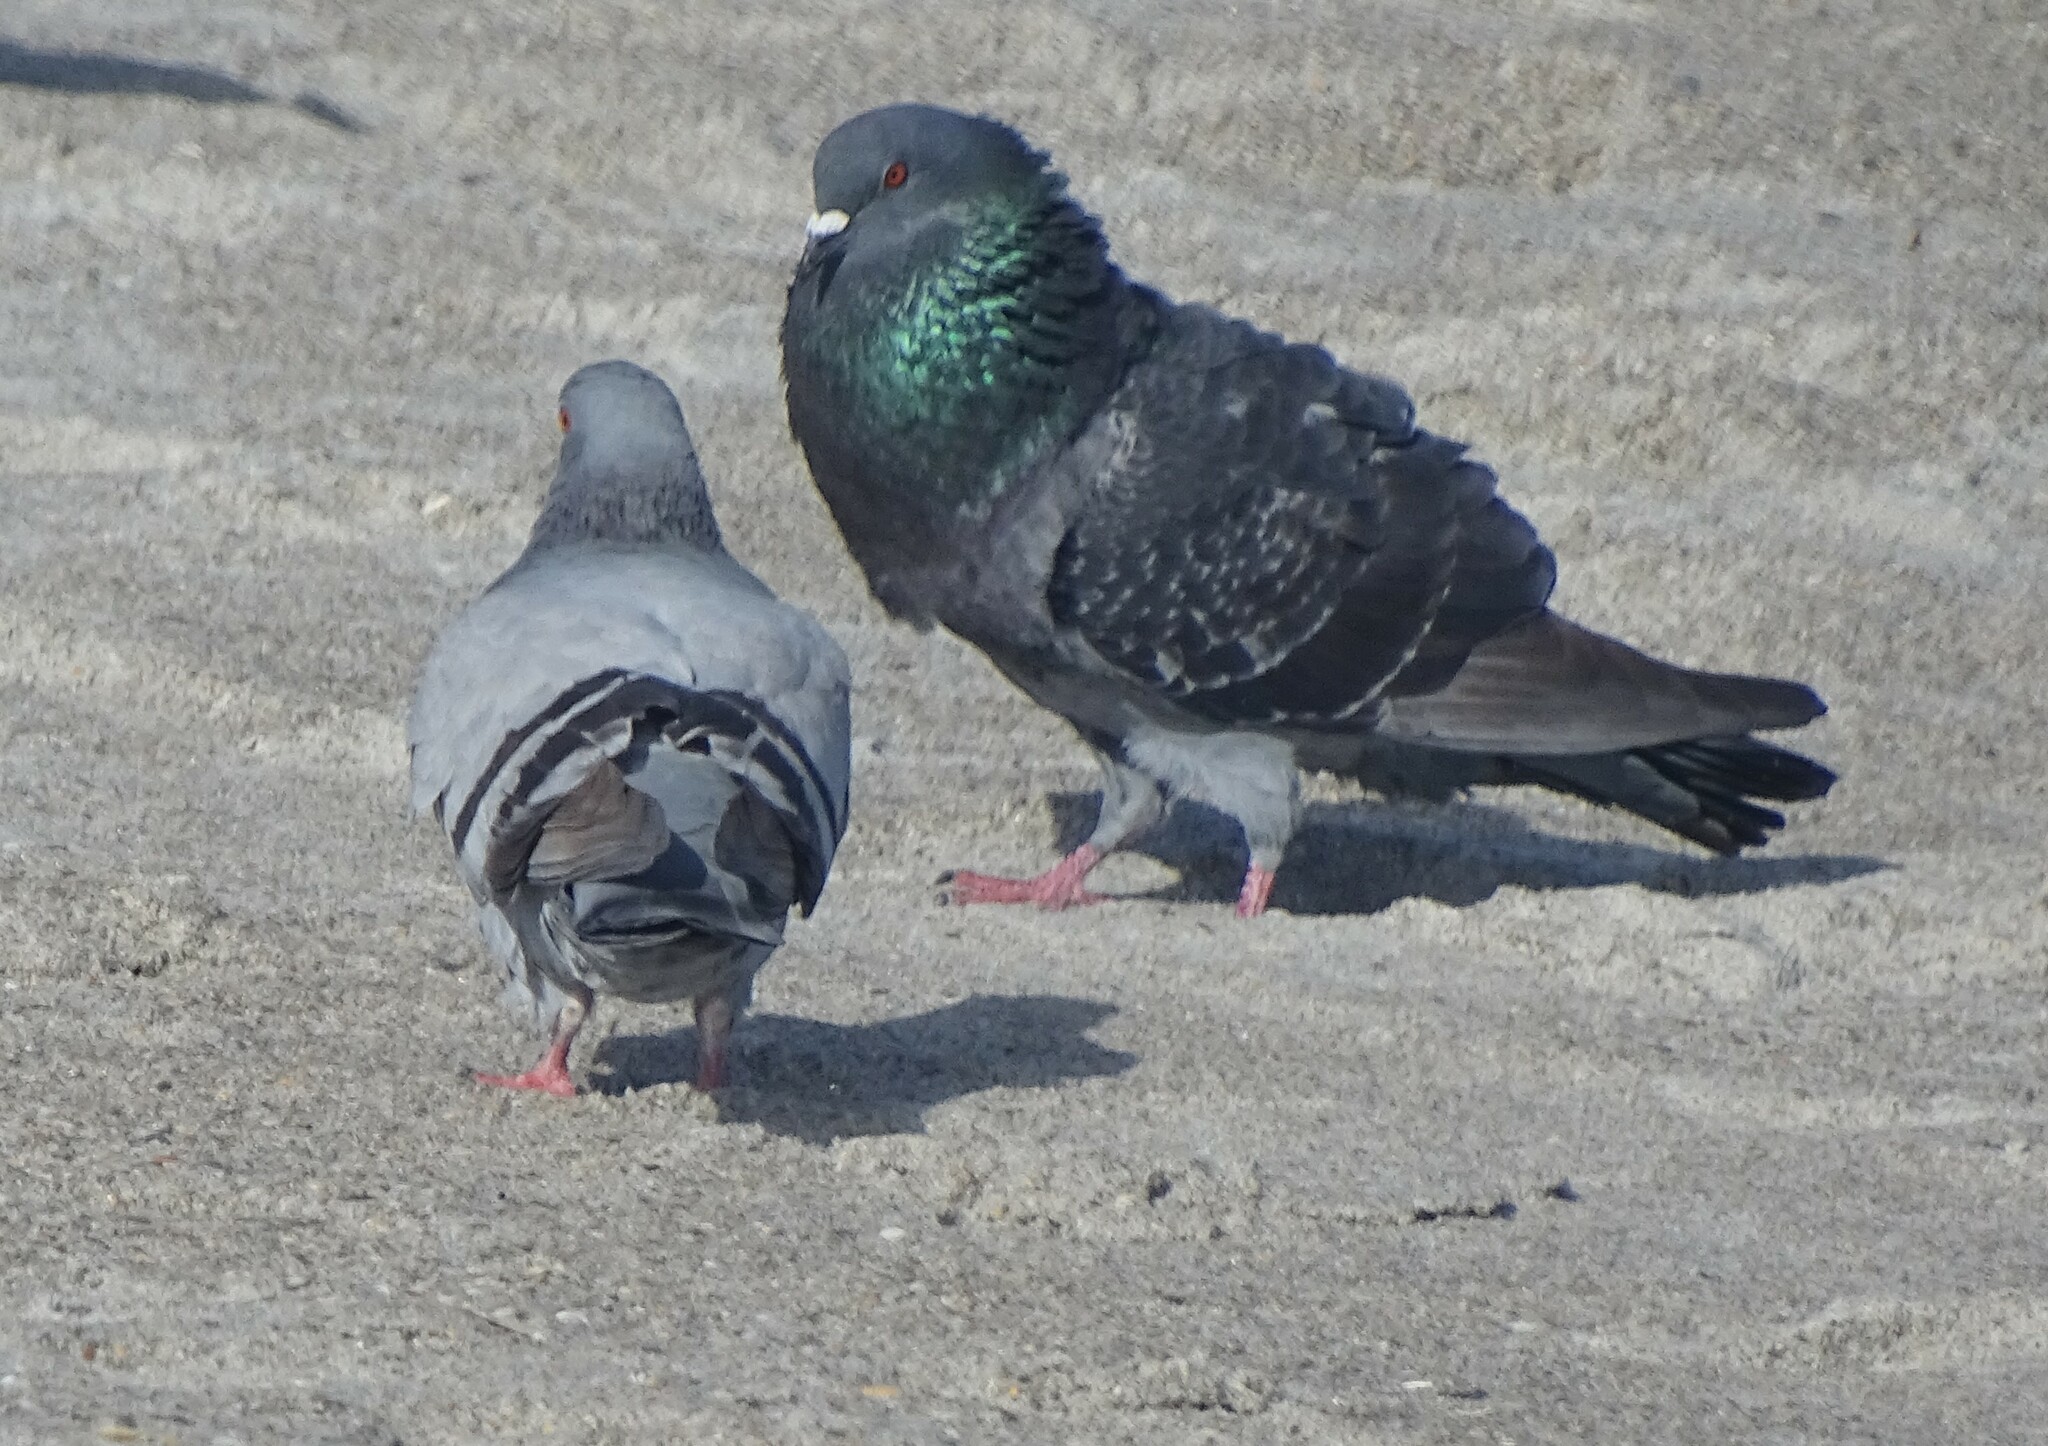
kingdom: Animalia
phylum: Chordata
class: Aves
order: Columbiformes
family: Columbidae
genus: Columba
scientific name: Columba livia
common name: Rock pigeon
